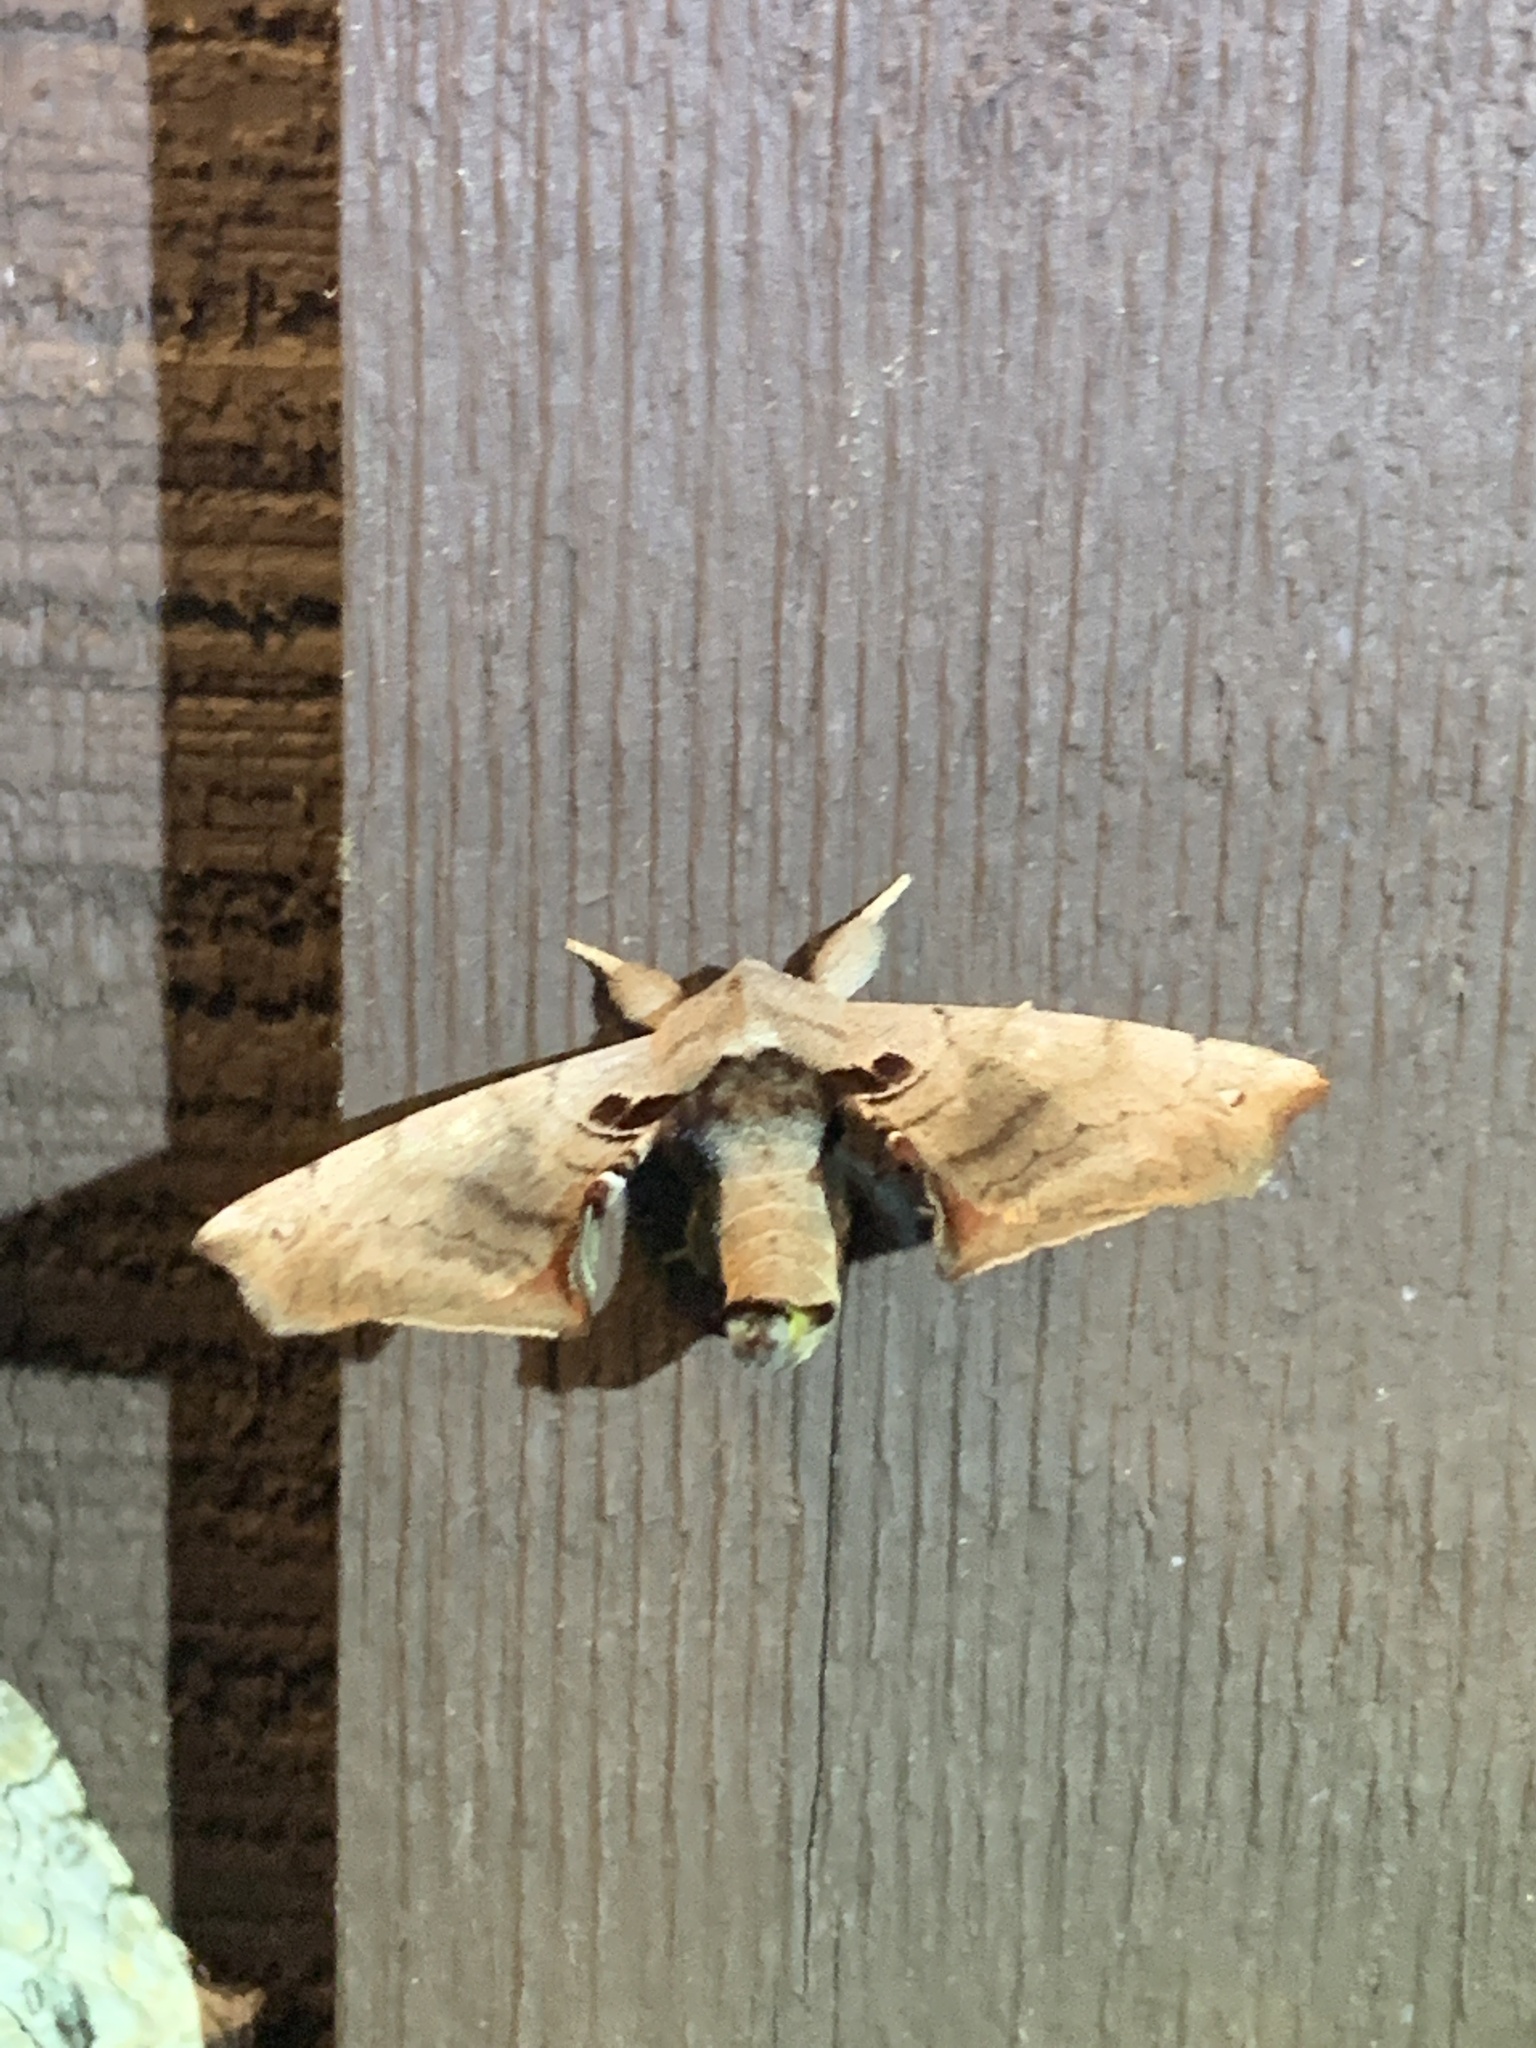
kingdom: Animalia
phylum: Arthropoda
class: Insecta
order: Lepidoptera
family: Apatelodidae
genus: Hygrochroa
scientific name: Hygrochroa Apatelodes torrefacta
